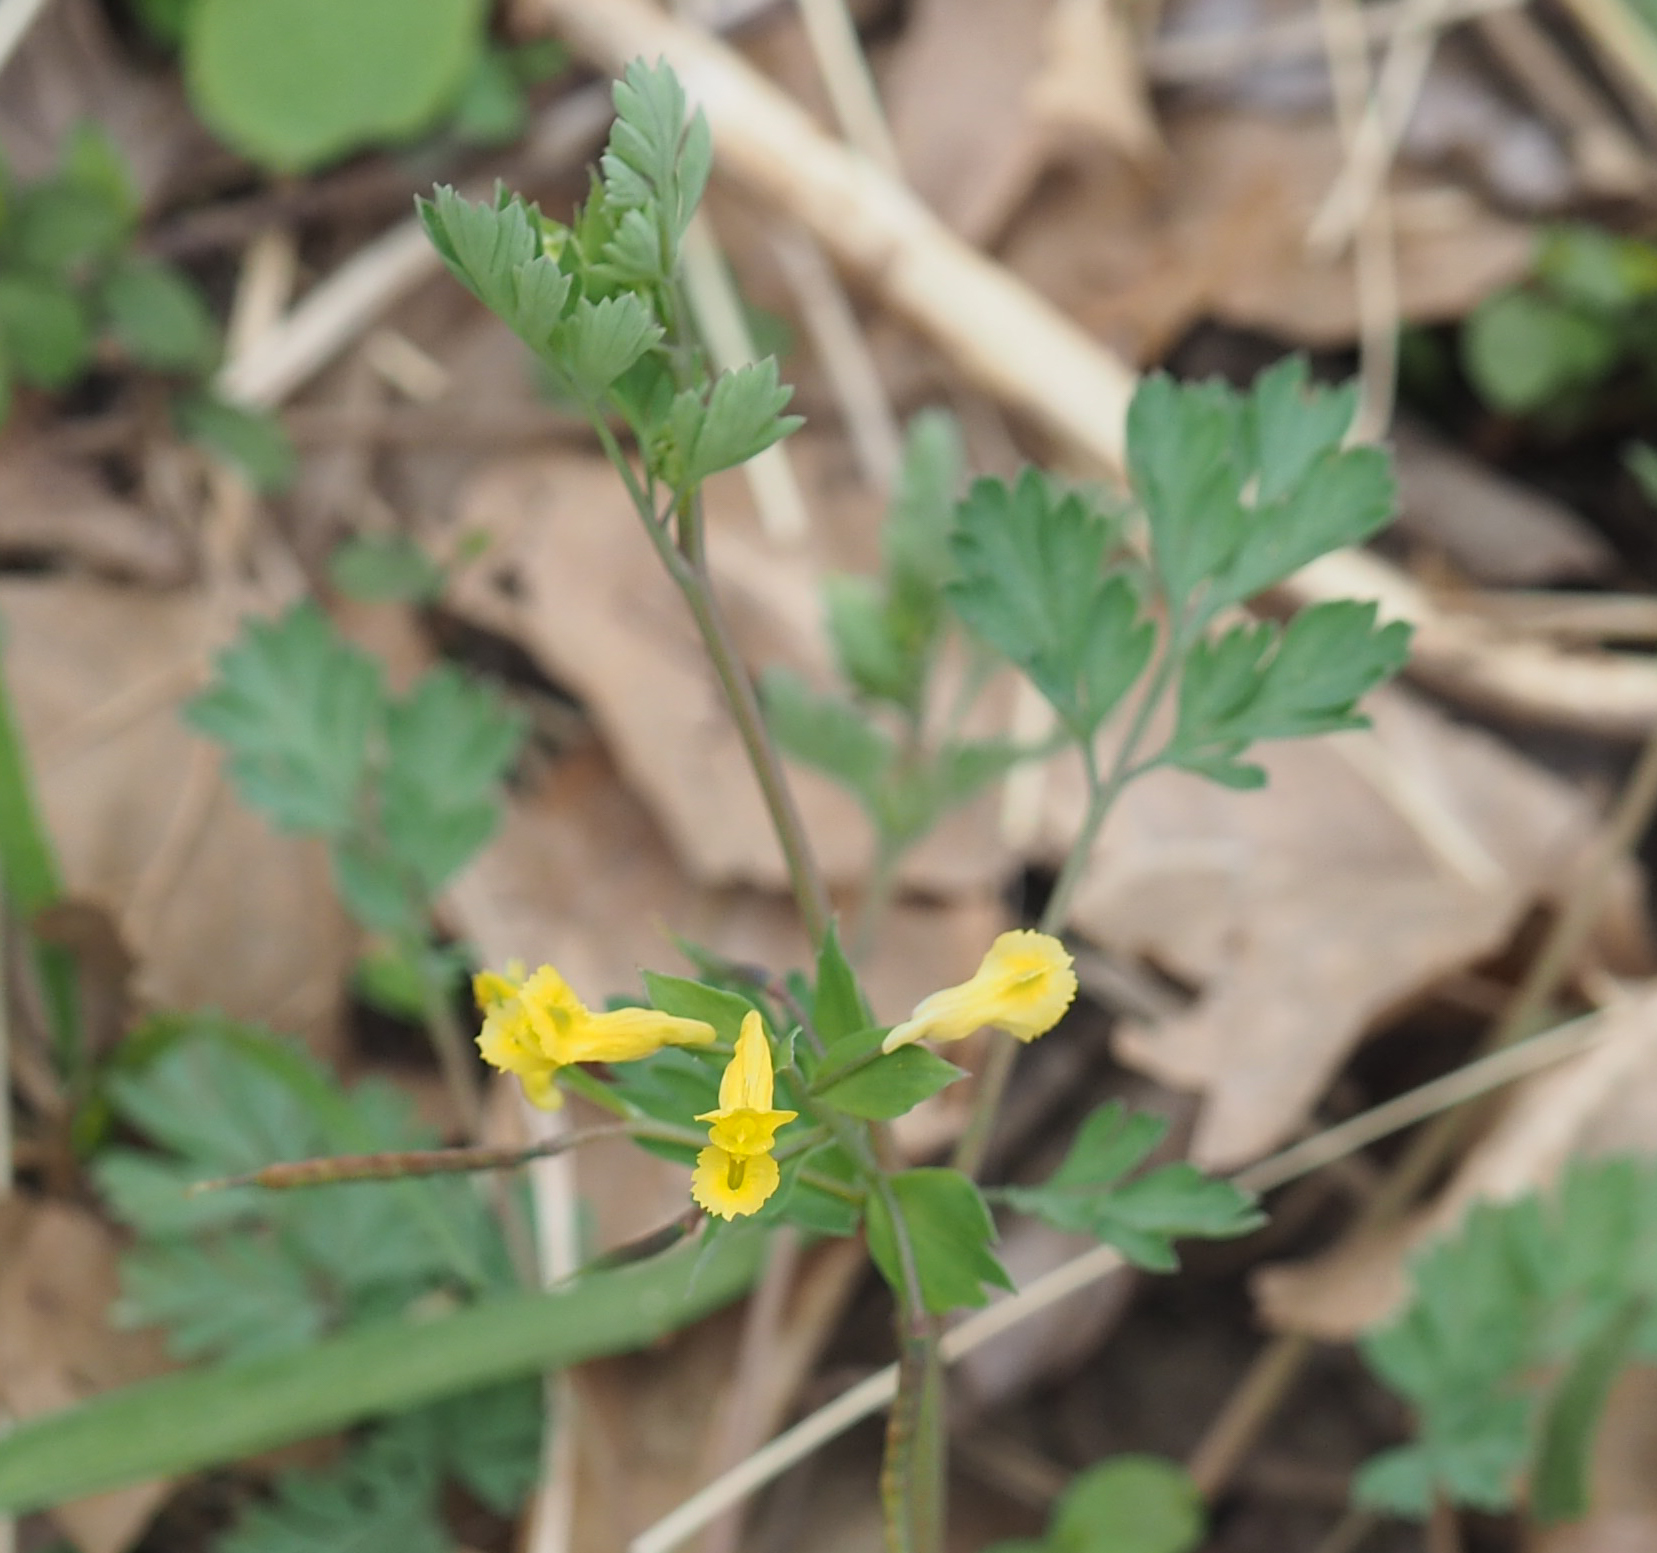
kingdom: Plantae
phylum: Tracheophyta
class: Magnoliopsida
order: Ranunculales
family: Papaveraceae
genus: Corydalis
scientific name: Corydalis flavula
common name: Yellow corydalis
